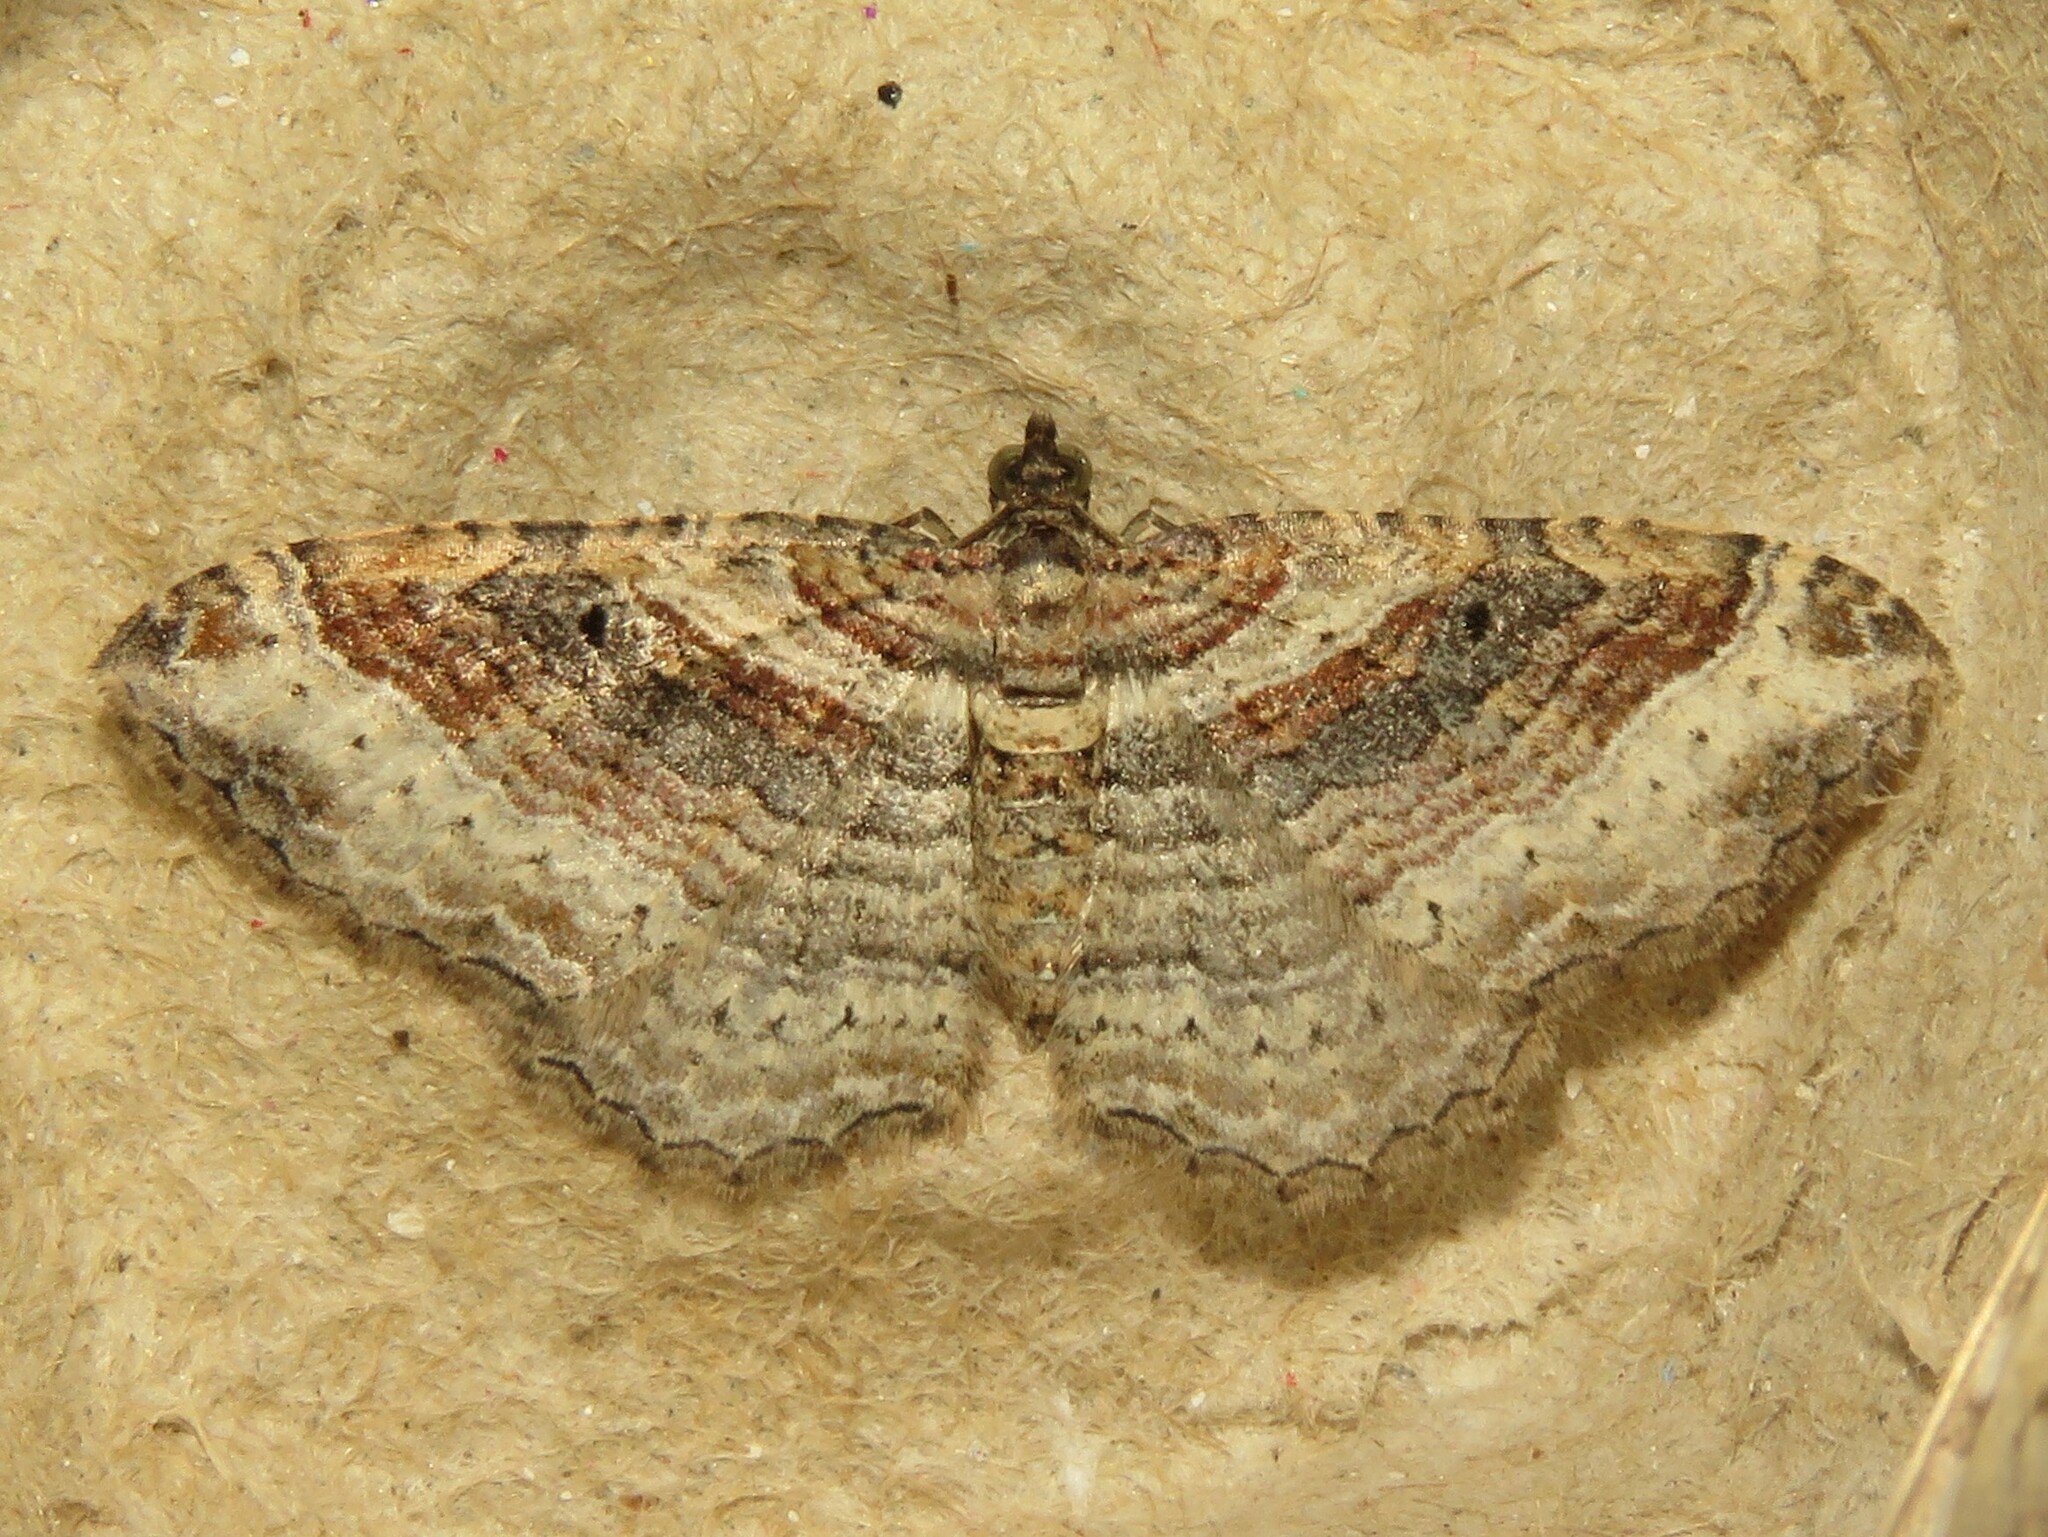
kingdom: Animalia
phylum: Arthropoda
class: Insecta
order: Lepidoptera
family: Geometridae
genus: Costaconvexa
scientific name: Costaconvexa centrostrigaria
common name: Bent-line carpet
